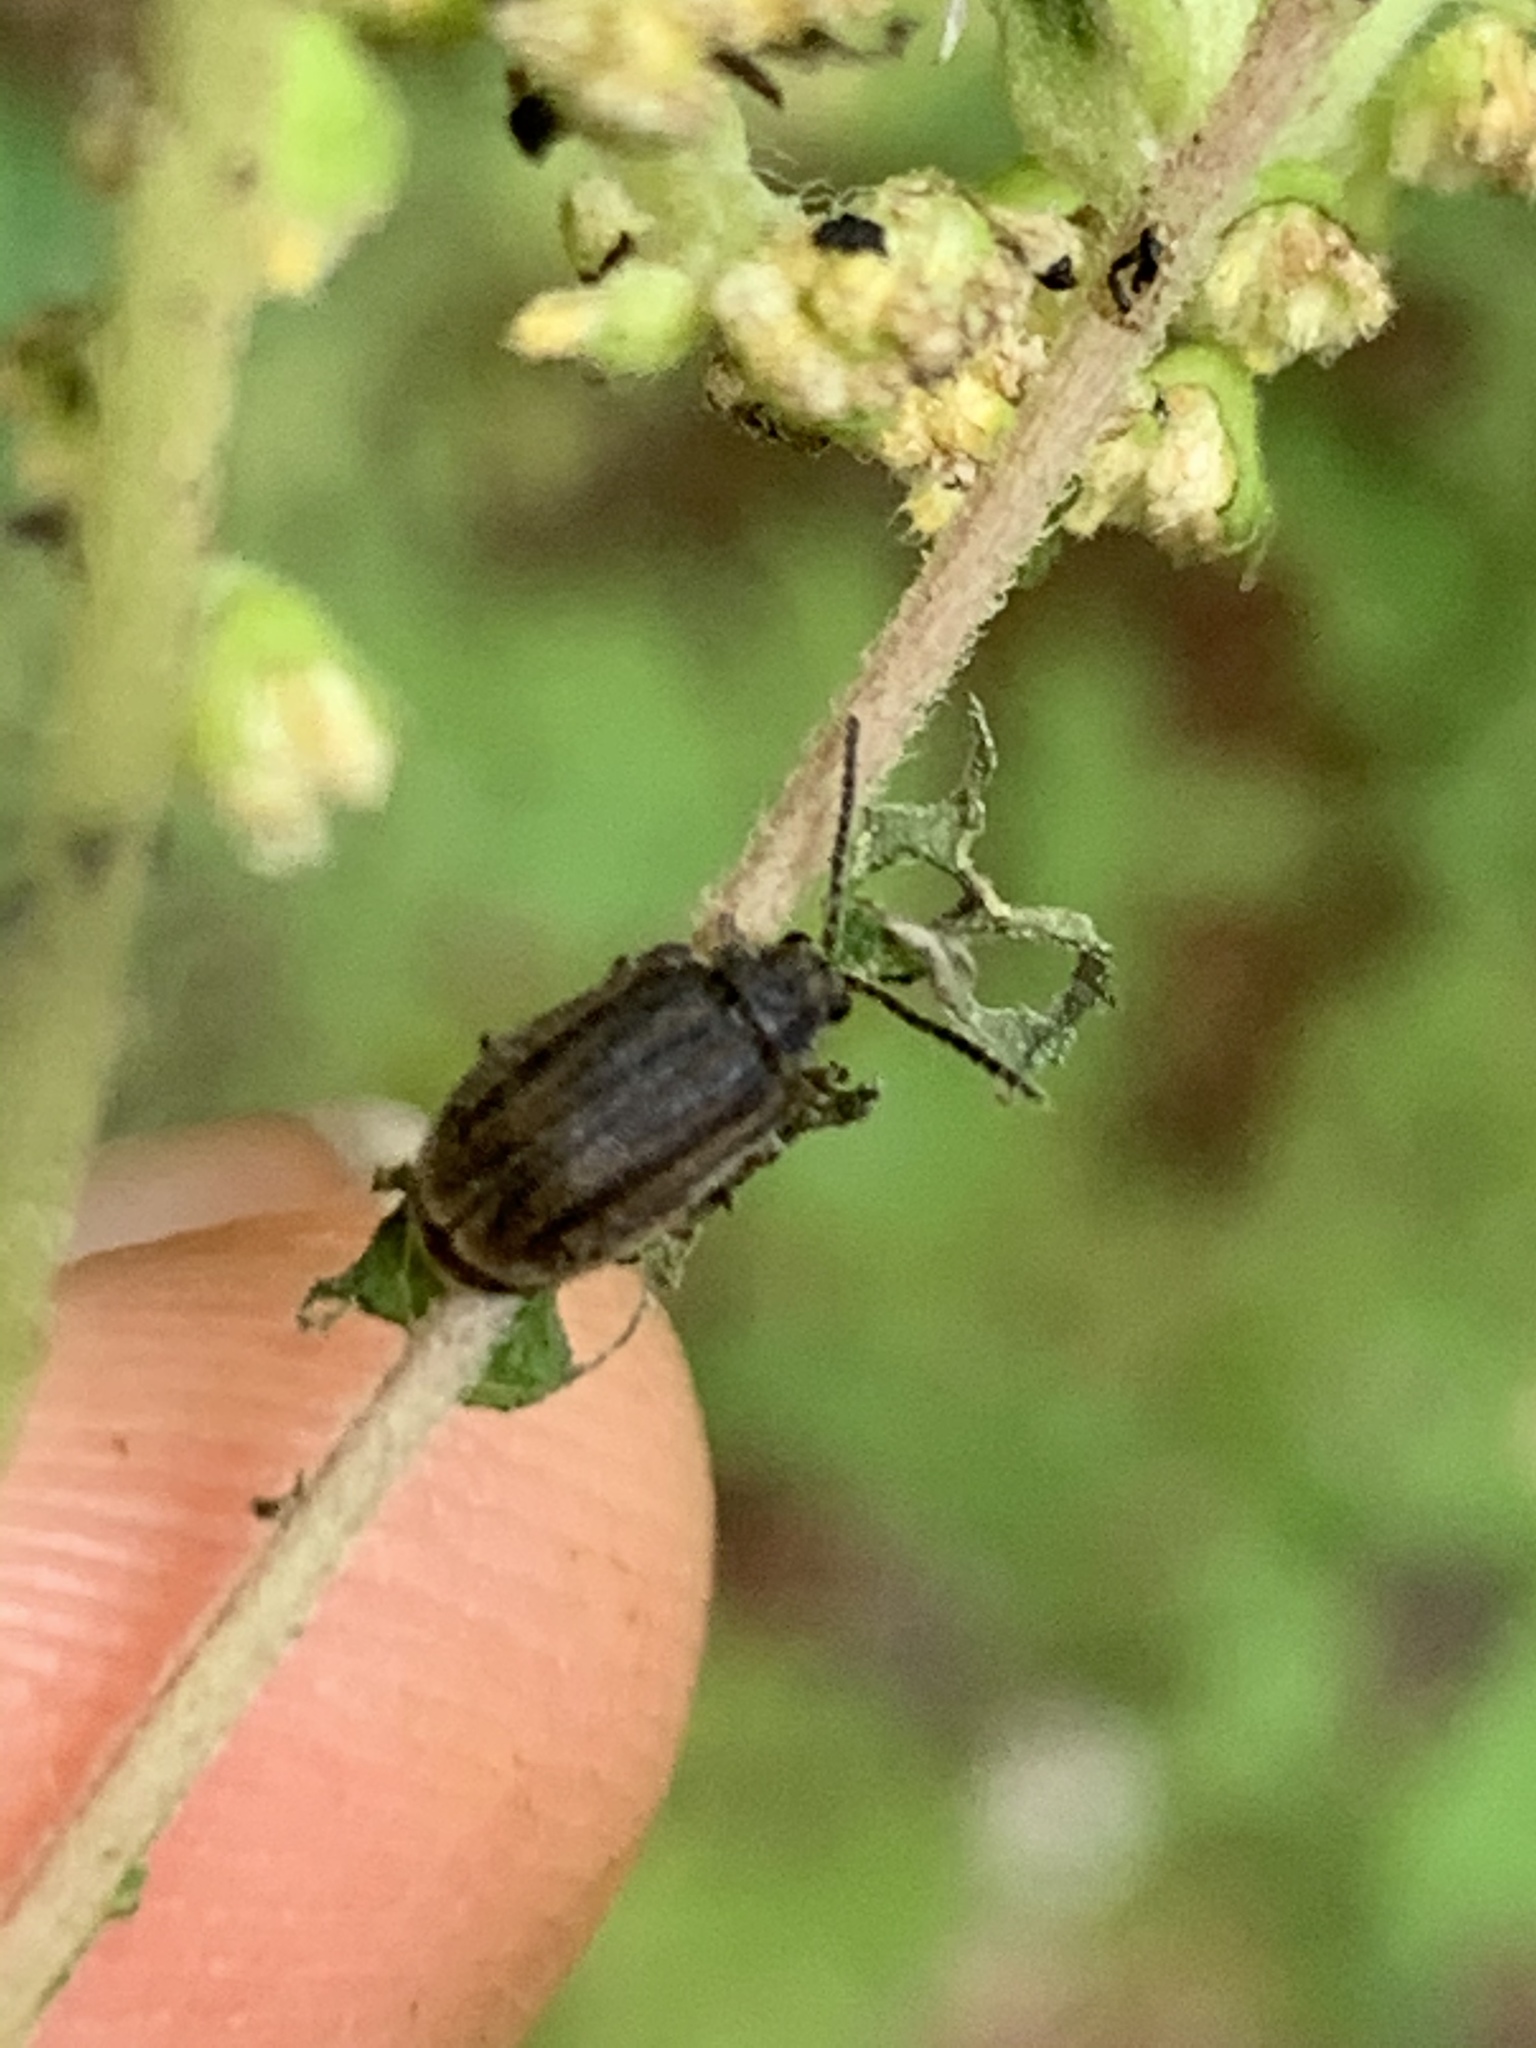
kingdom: Animalia
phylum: Arthropoda
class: Insecta
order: Coleoptera
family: Chrysomelidae
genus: Ophraella
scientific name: Ophraella communa
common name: Ragweed leaf beetle
